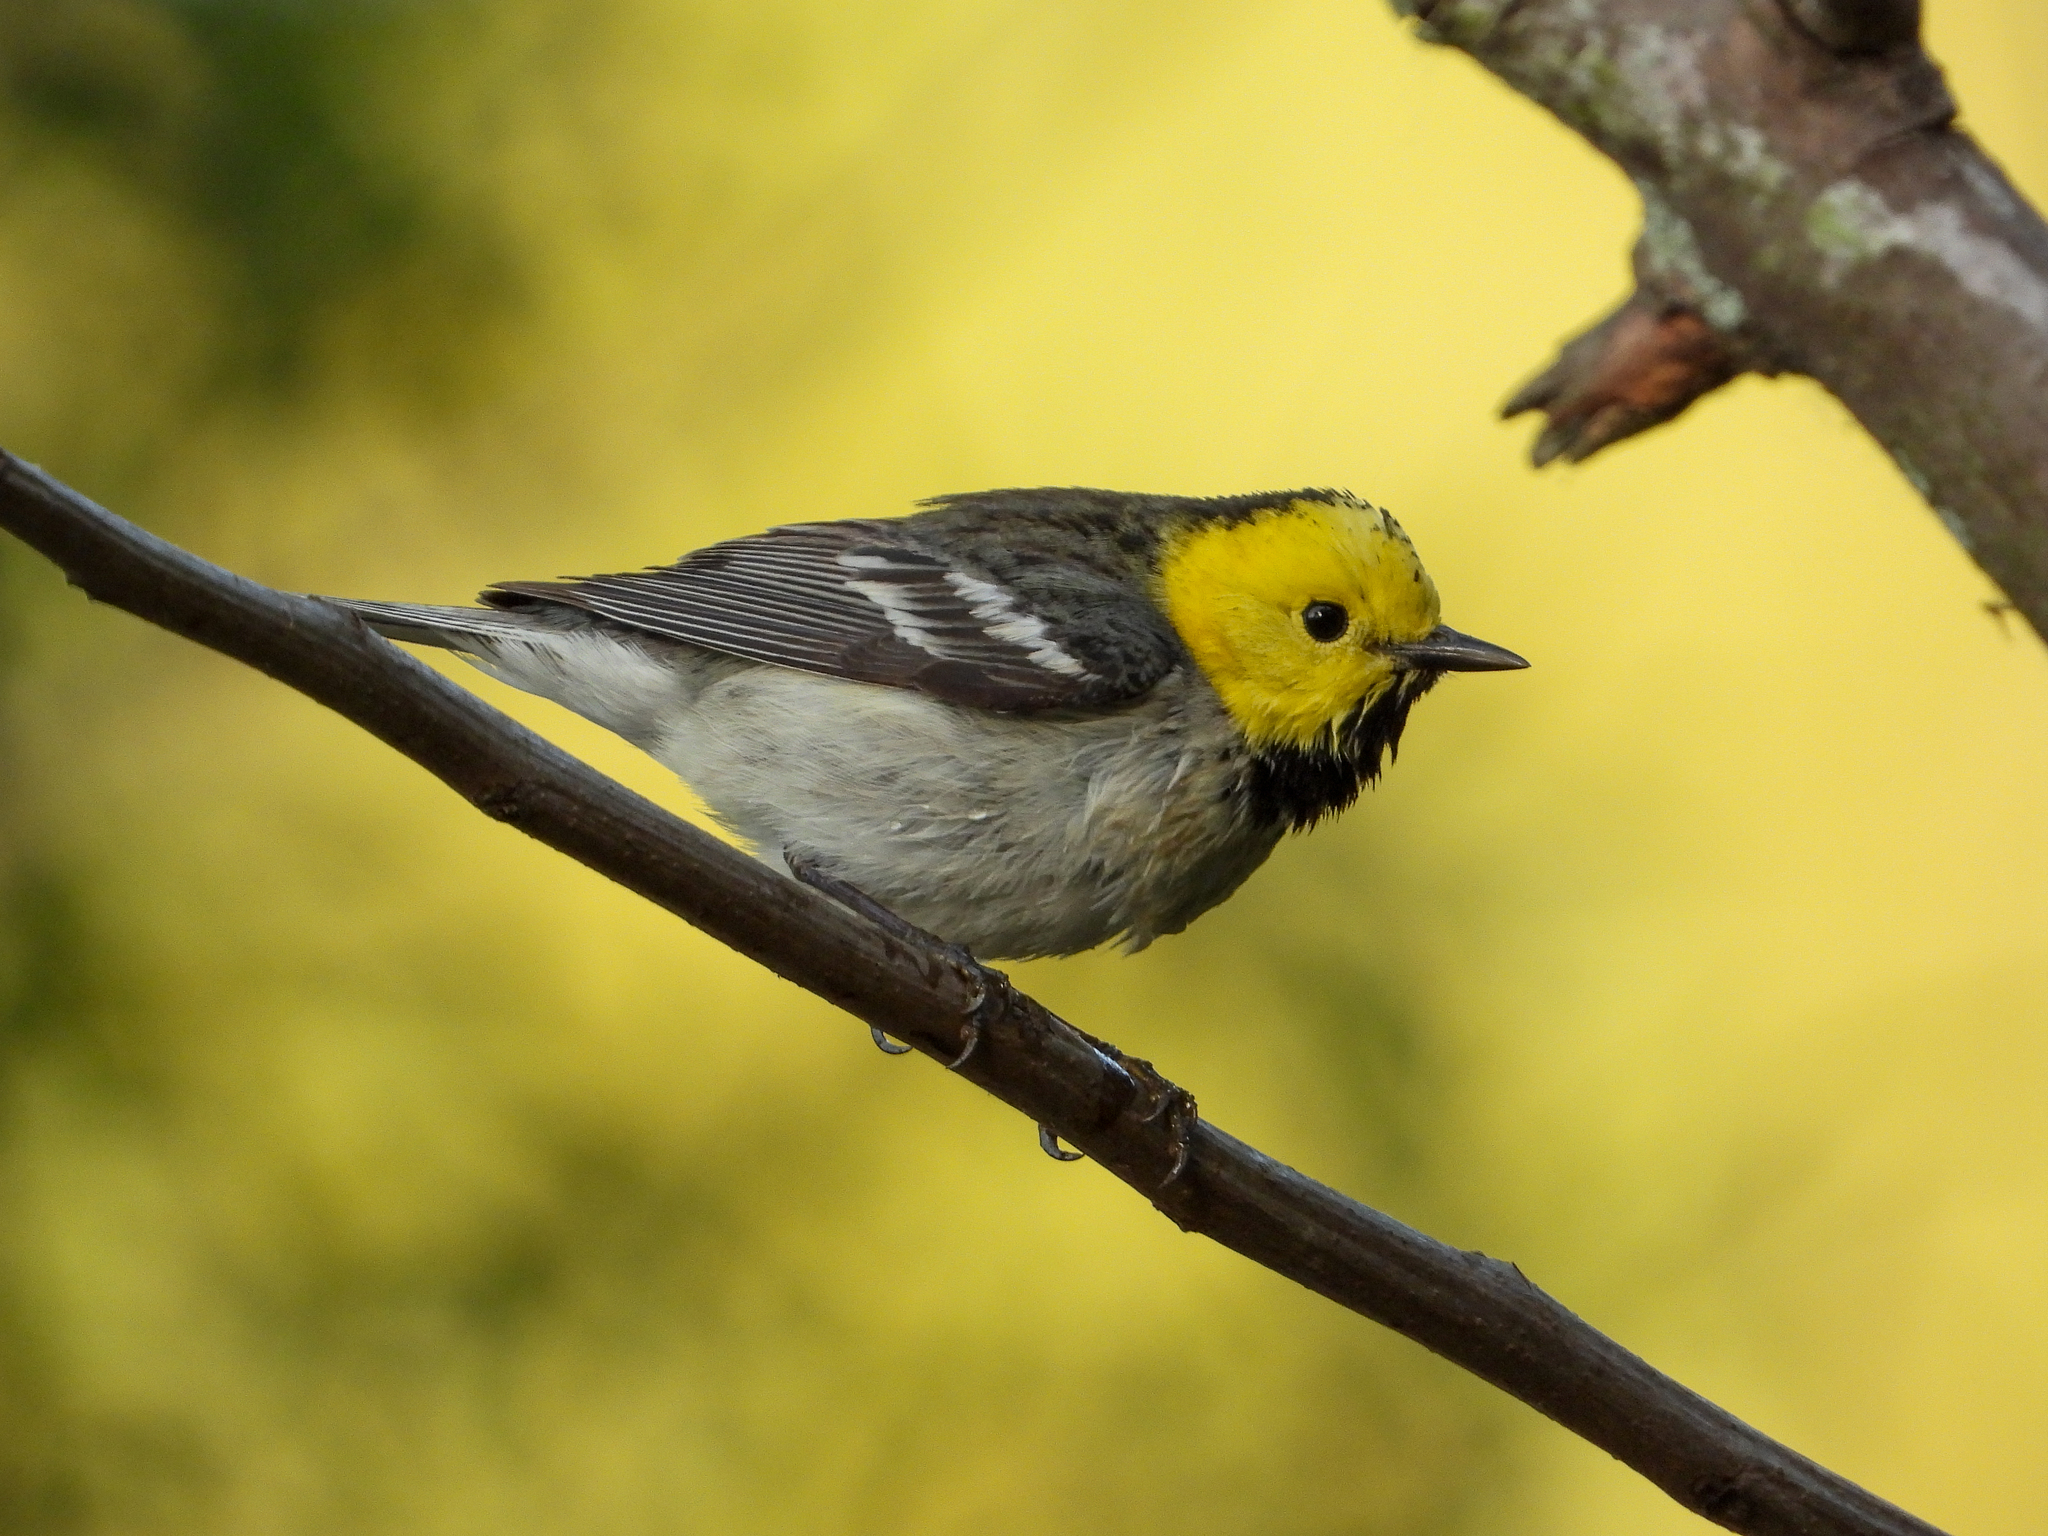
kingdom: Animalia
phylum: Chordata
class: Aves
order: Passeriformes
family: Parulidae
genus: Setophaga
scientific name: Setophaga occidentalis
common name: Hermit warbler
